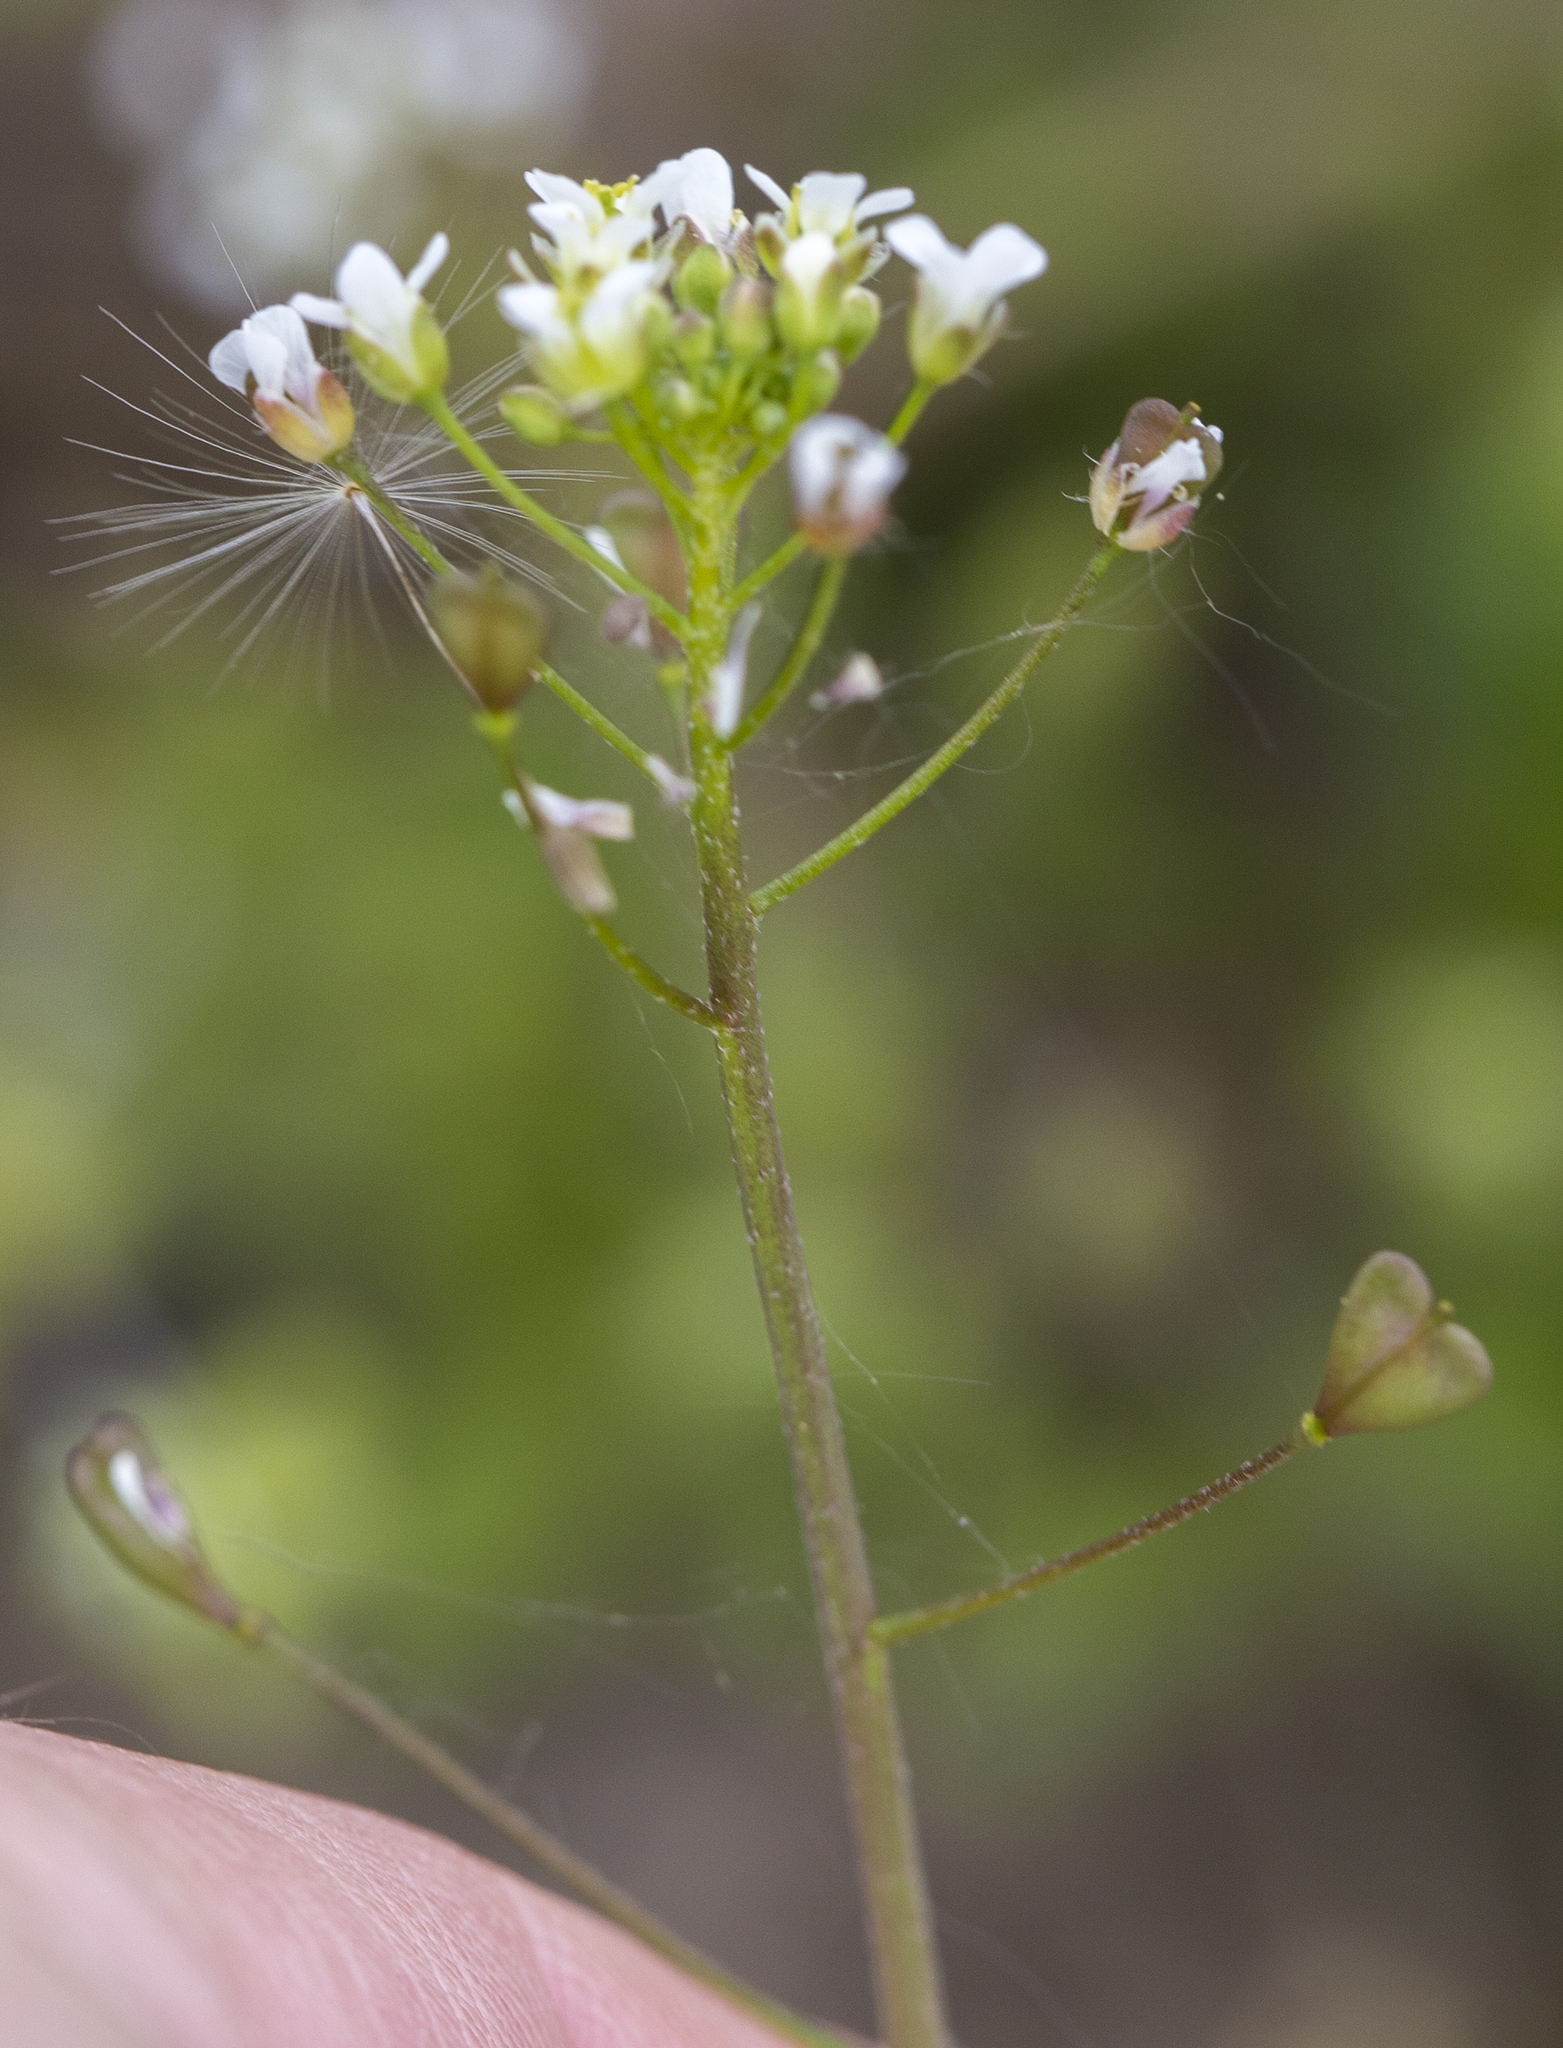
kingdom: Plantae
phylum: Tracheophyta
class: Magnoliopsida
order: Brassicales
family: Brassicaceae
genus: Capsella
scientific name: Capsella bursa-pastoris
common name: Shepherd's purse
